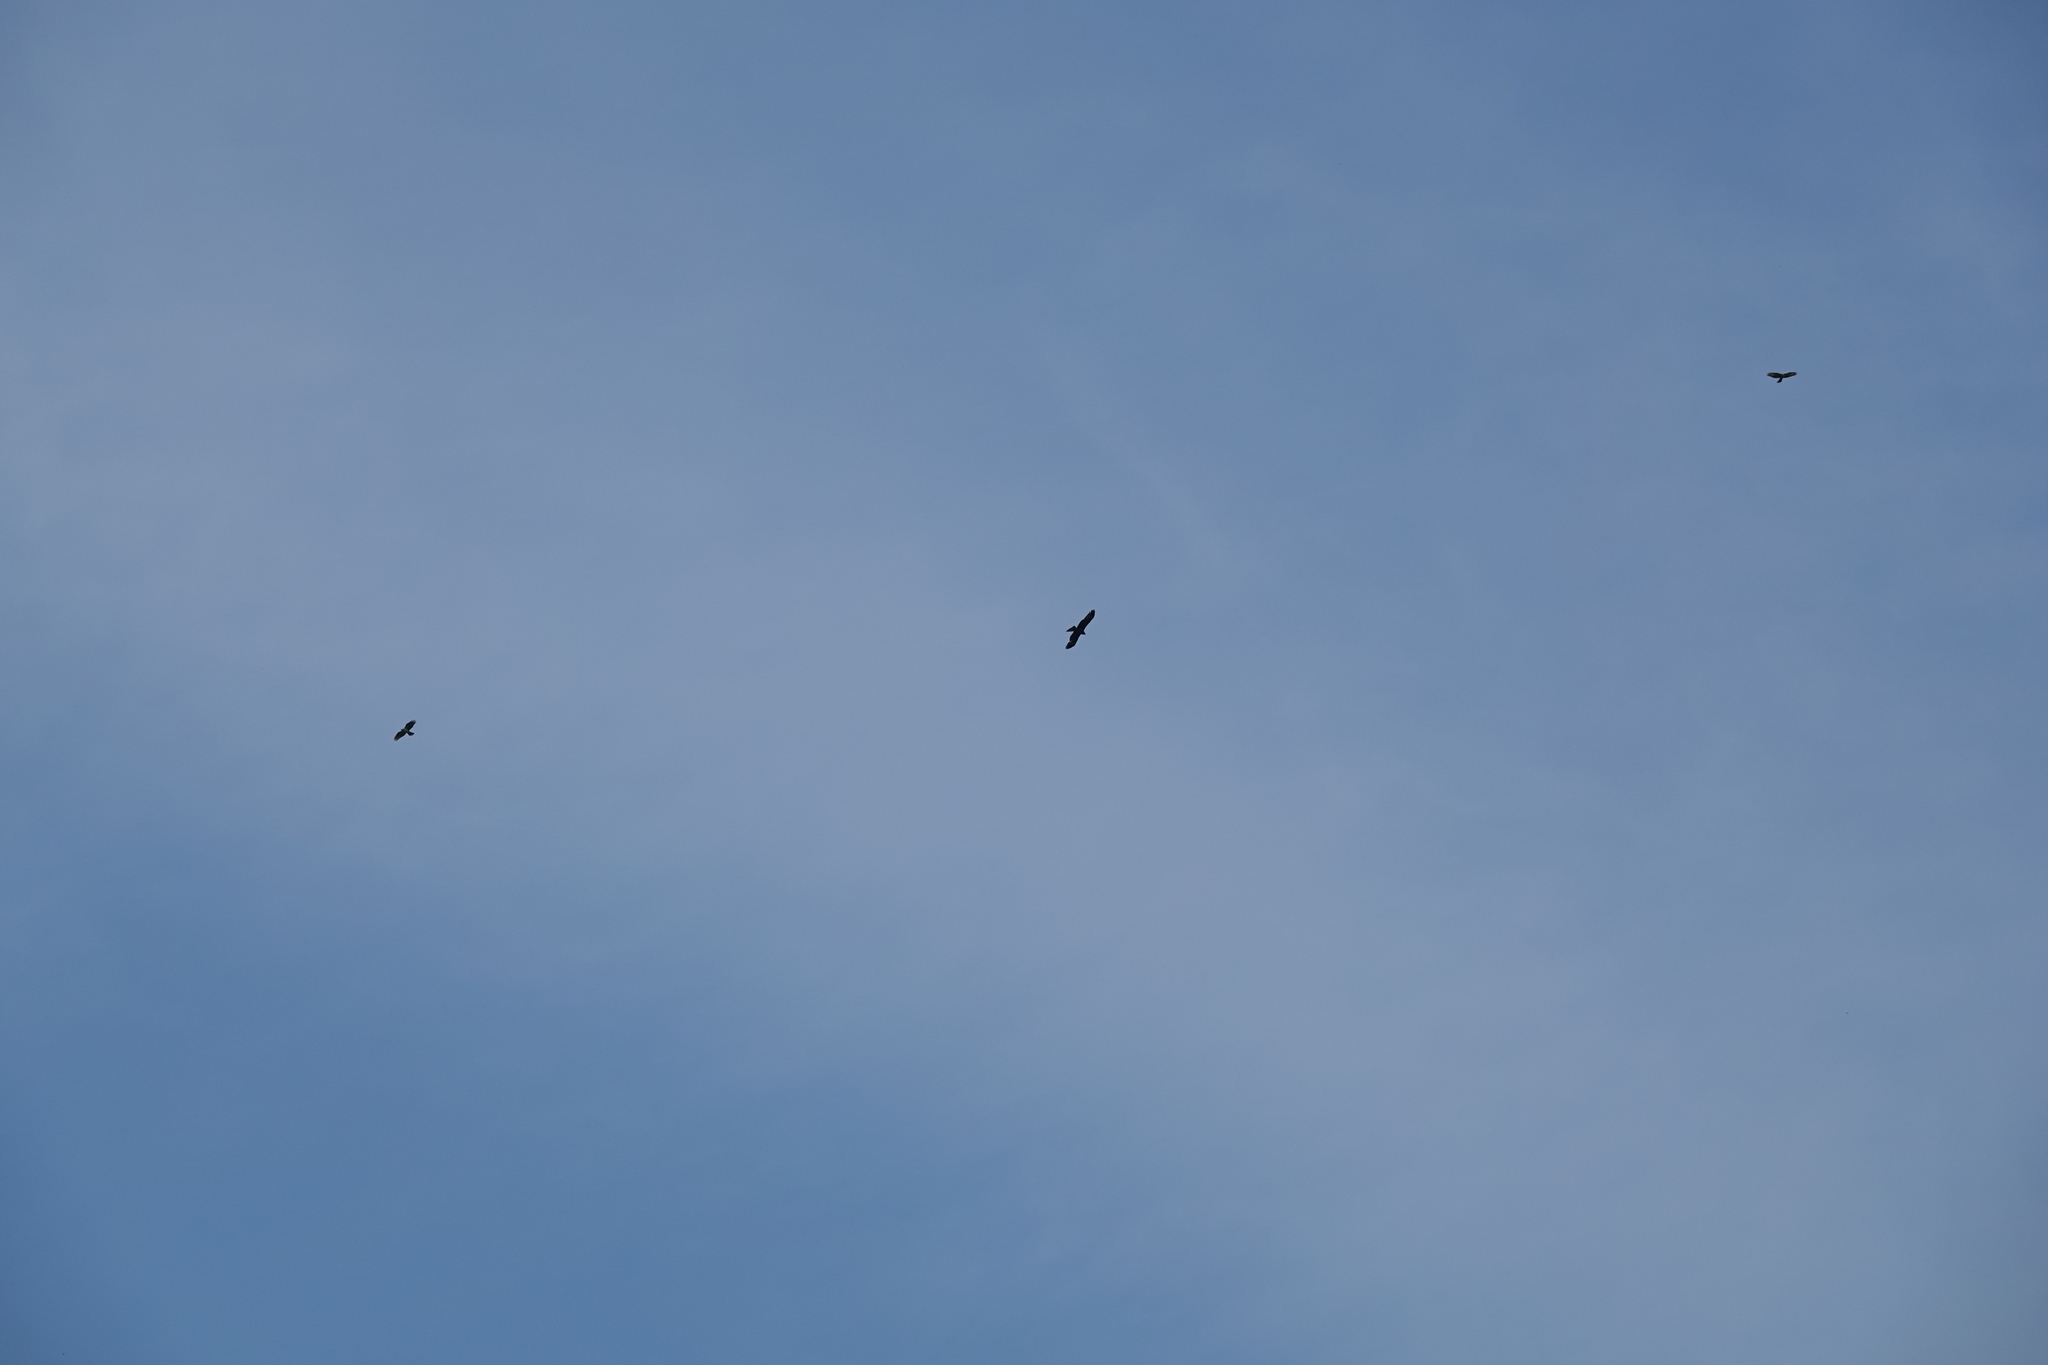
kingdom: Animalia
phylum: Chordata
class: Aves
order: Accipitriformes
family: Accipitridae
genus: Milvus
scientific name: Milvus migrans
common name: Black kite
